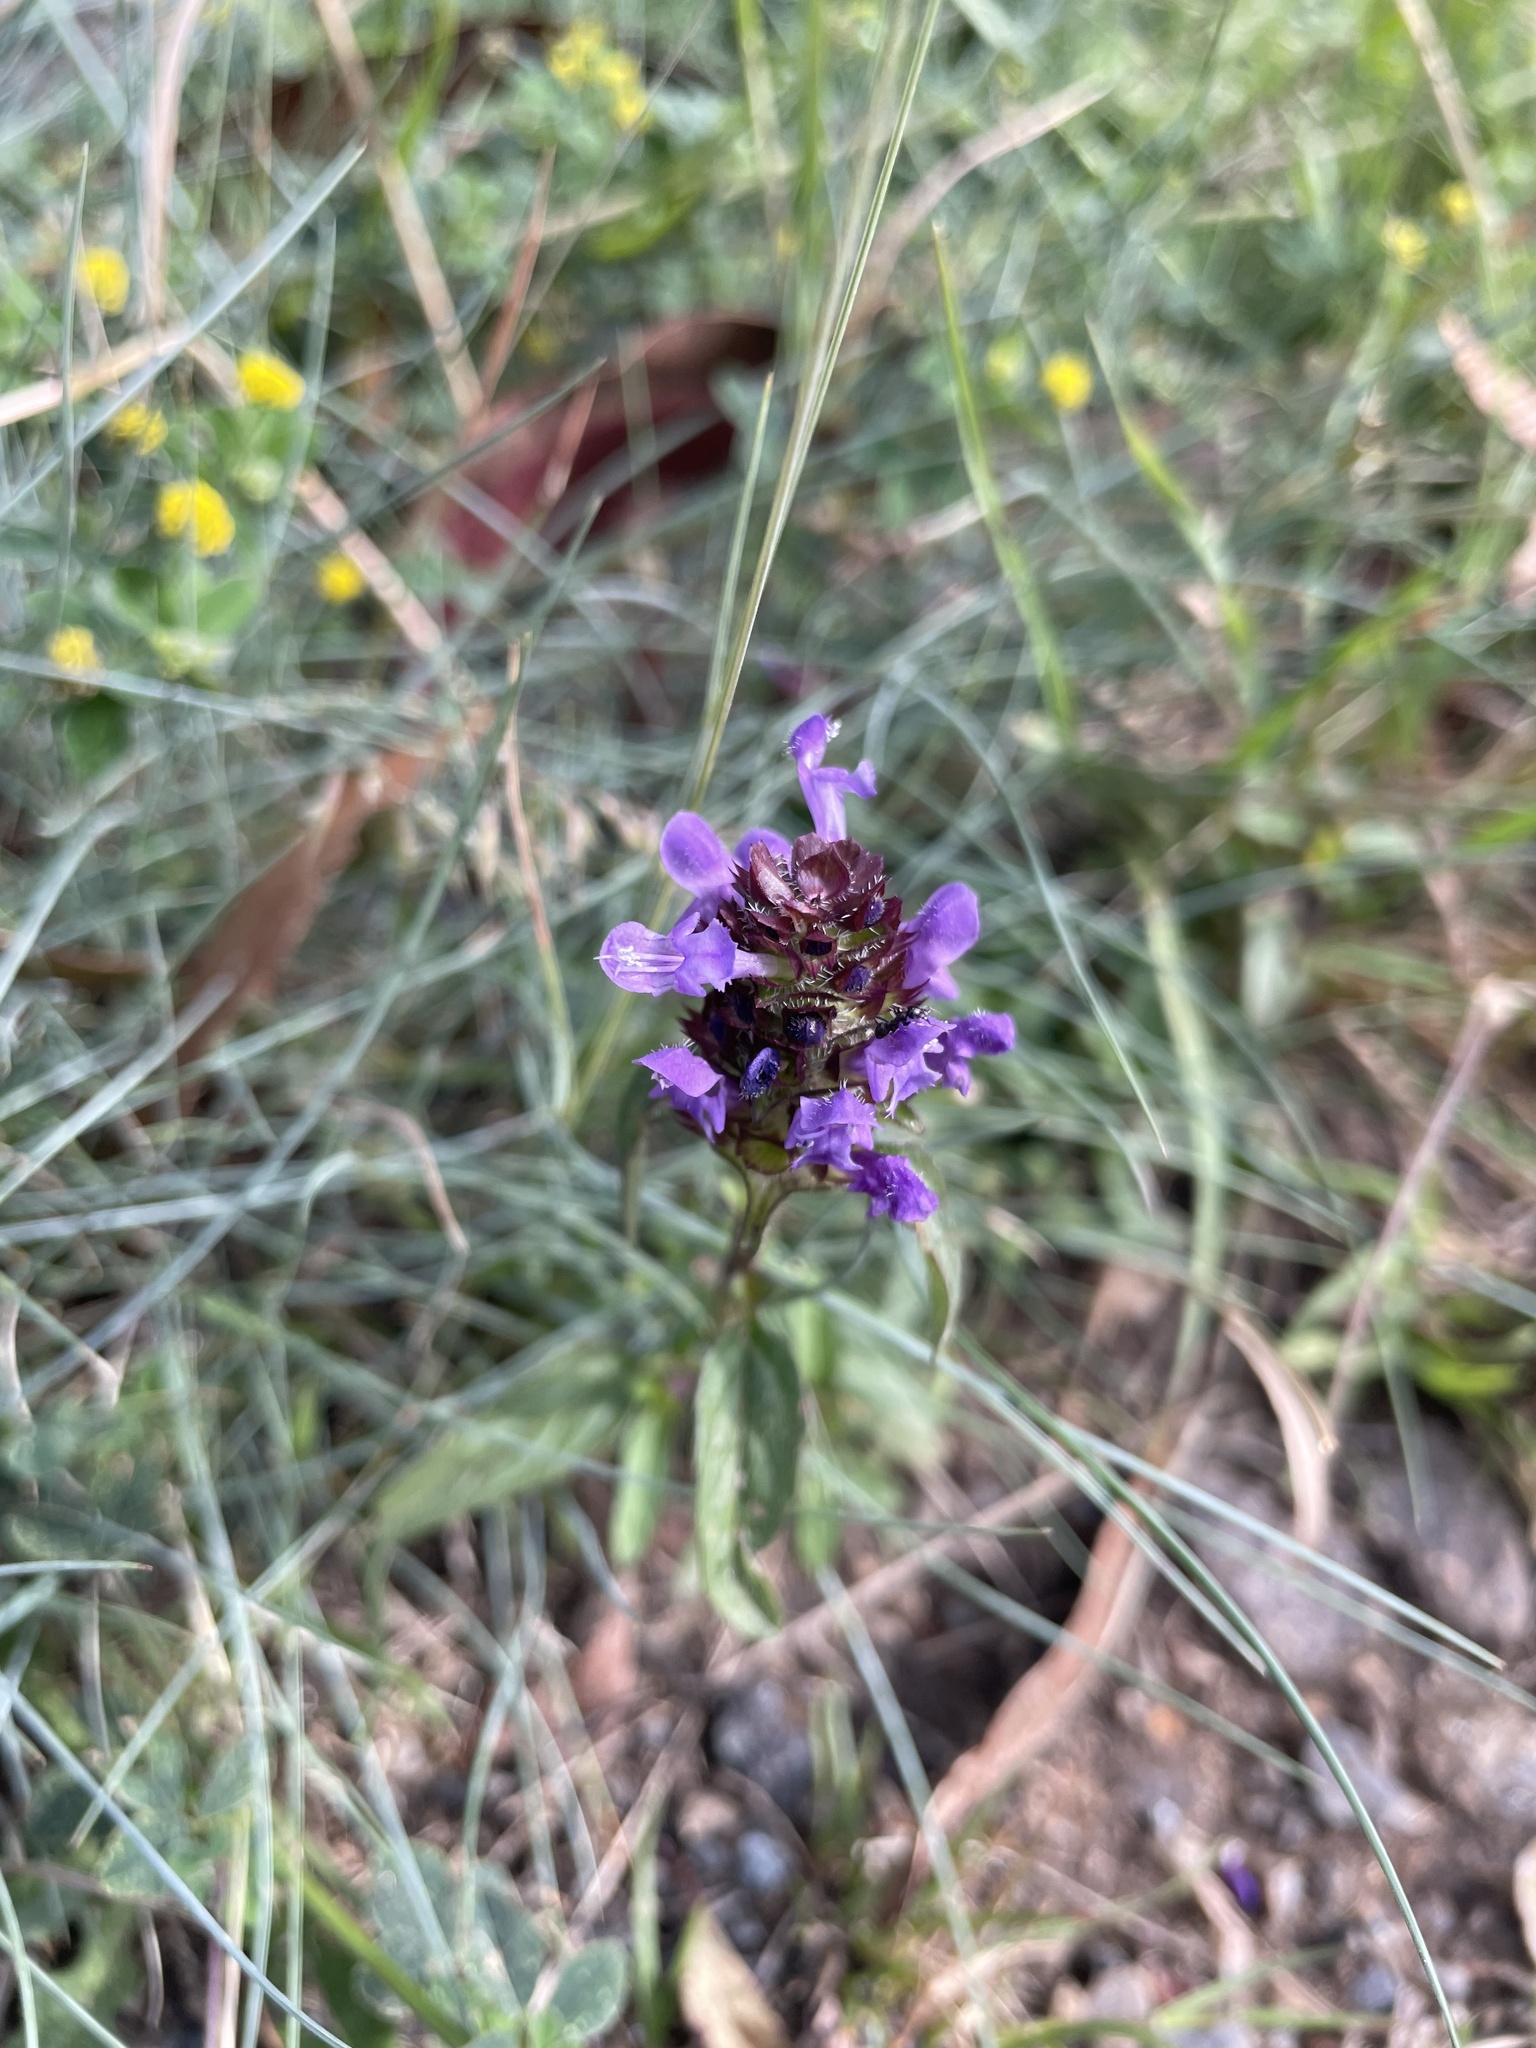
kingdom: Plantae
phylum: Tracheophyta
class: Magnoliopsida
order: Lamiales
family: Lamiaceae
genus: Prunella
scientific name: Prunella vulgaris
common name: Heal-all
